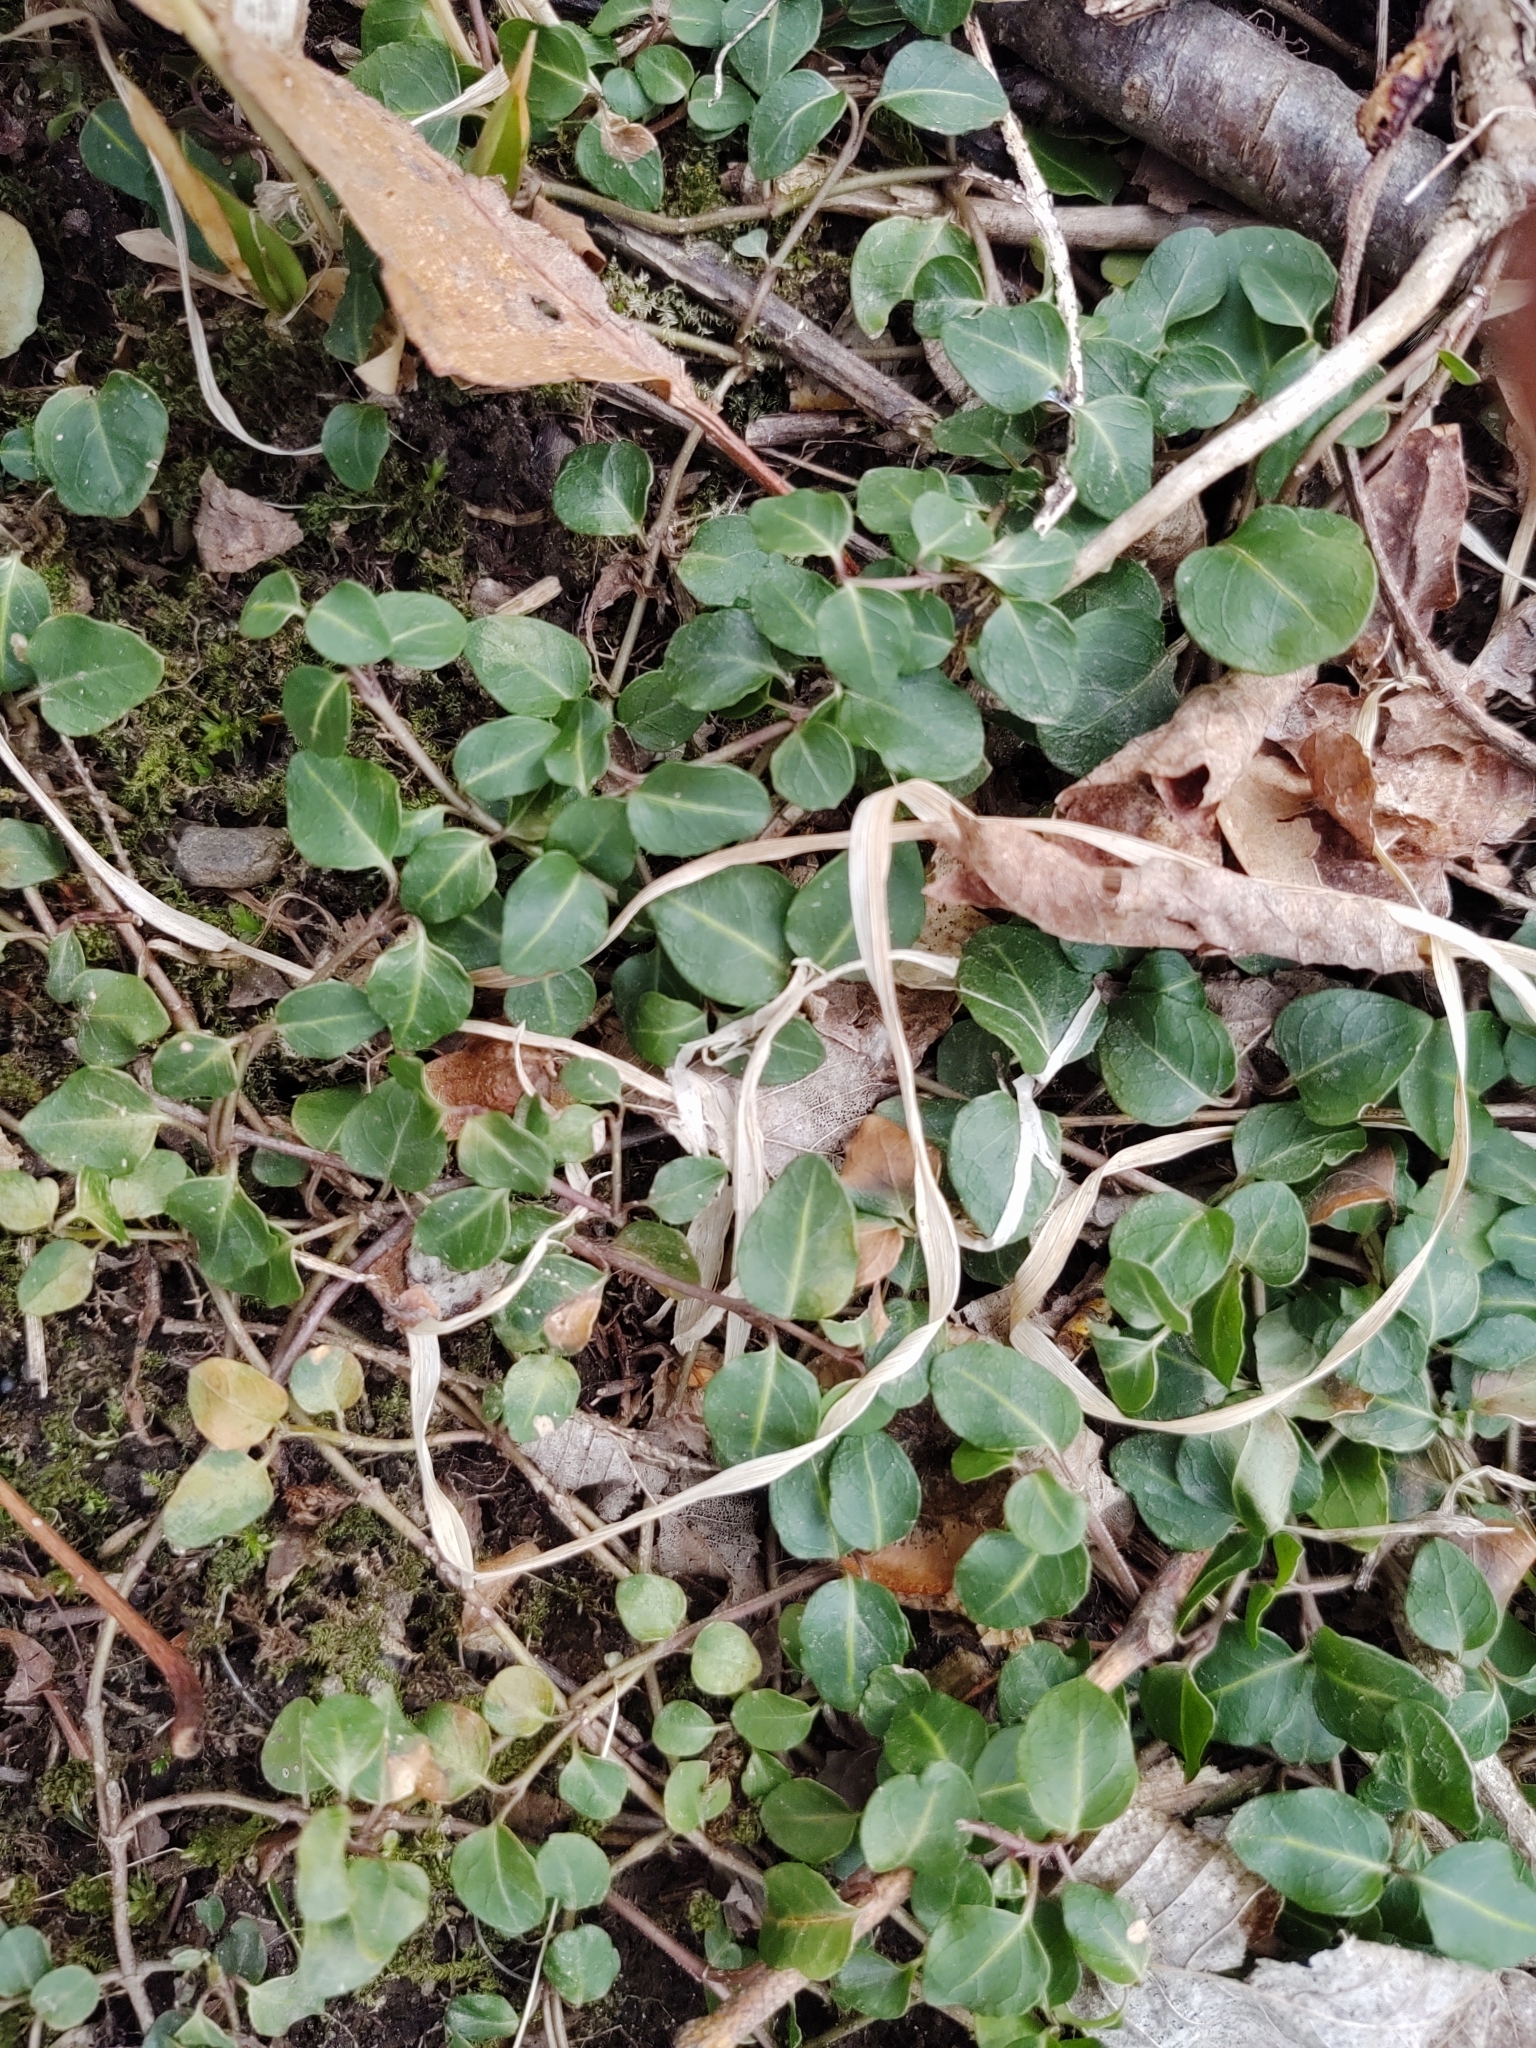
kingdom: Plantae
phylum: Tracheophyta
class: Magnoliopsida
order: Gentianales
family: Rubiaceae
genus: Mitchella
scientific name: Mitchella repens
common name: Partridge-berry
